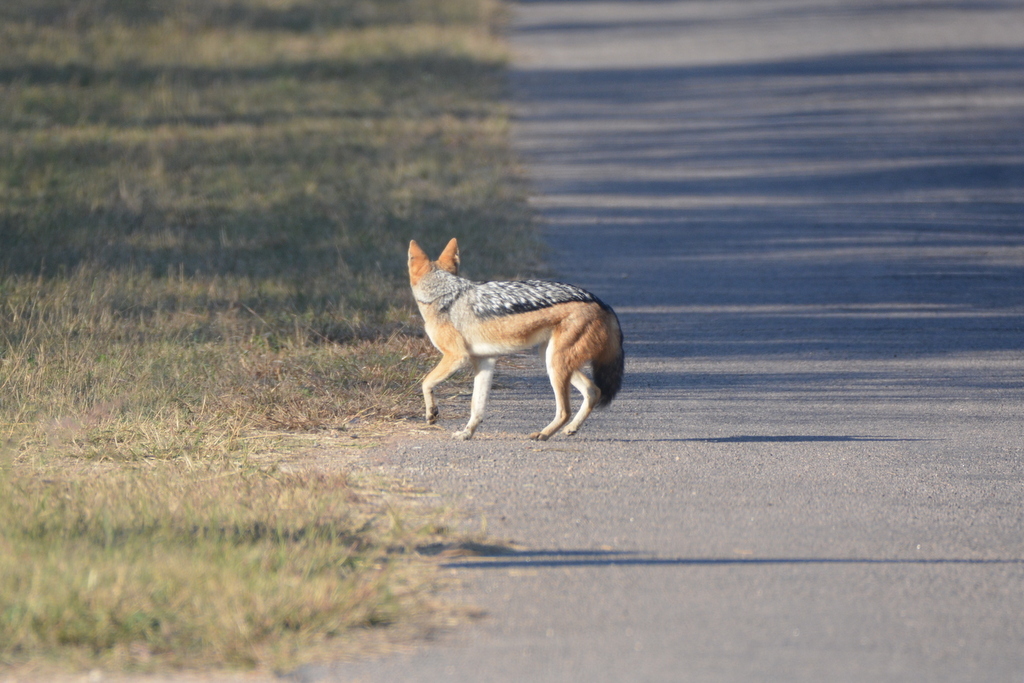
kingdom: Animalia
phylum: Chordata
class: Mammalia
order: Carnivora
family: Canidae
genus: Lupulella
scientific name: Lupulella
